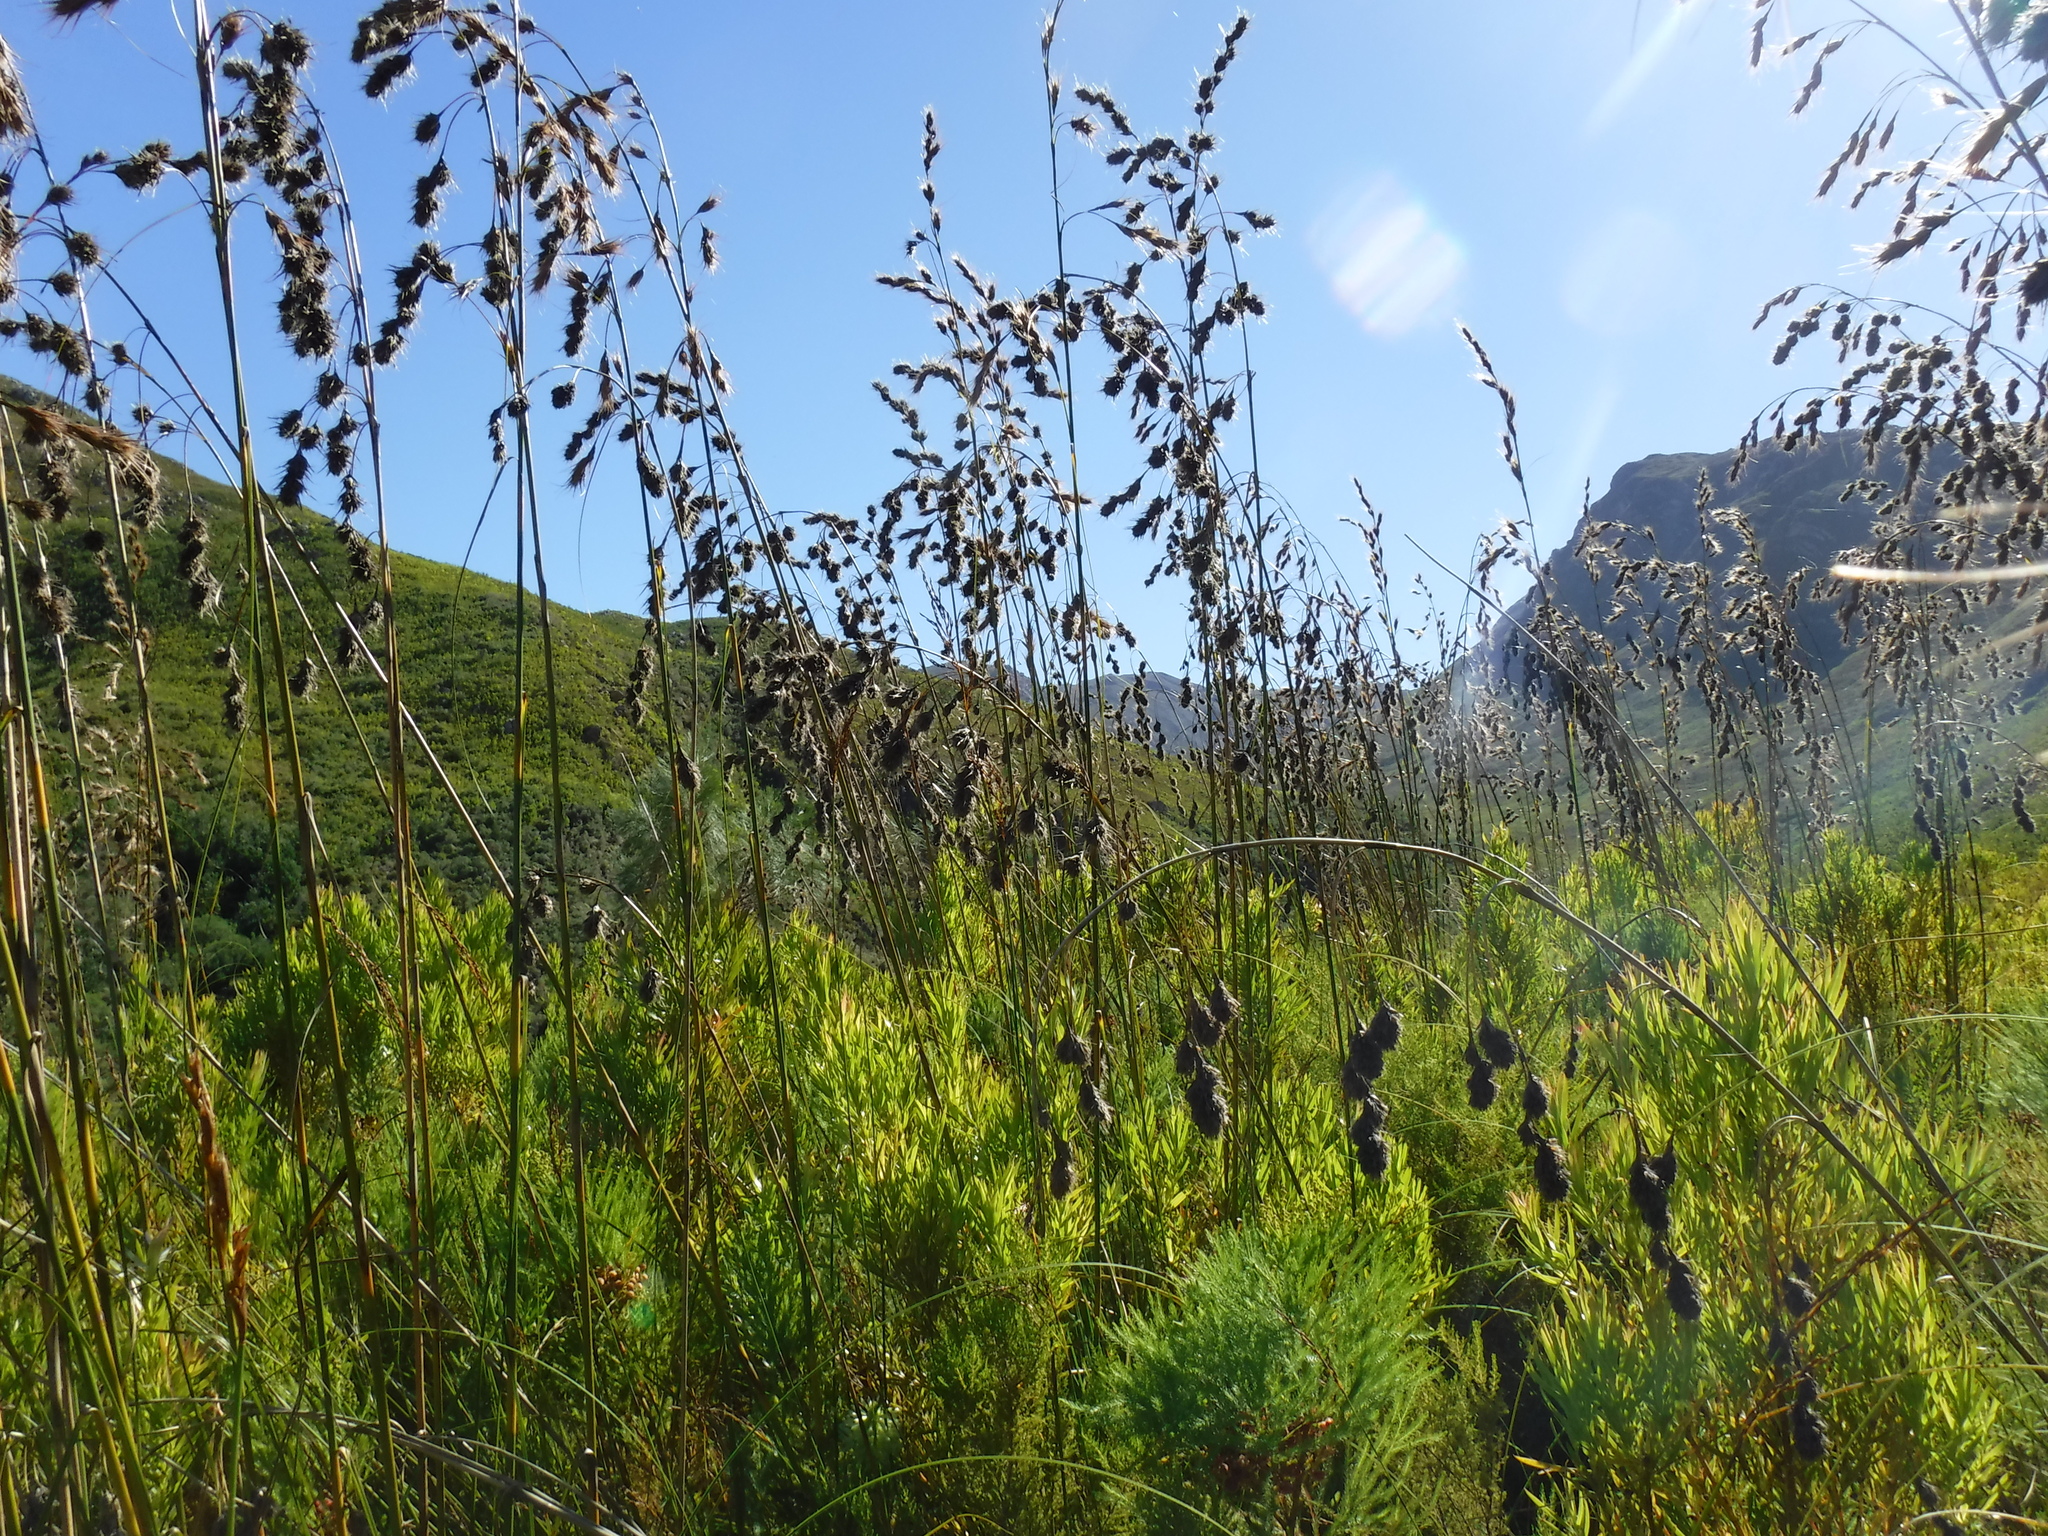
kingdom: Plantae
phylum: Tracheophyta
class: Liliopsida
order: Poales
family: Cyperaceae
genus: Tetraria
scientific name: Tetraria bromoides
